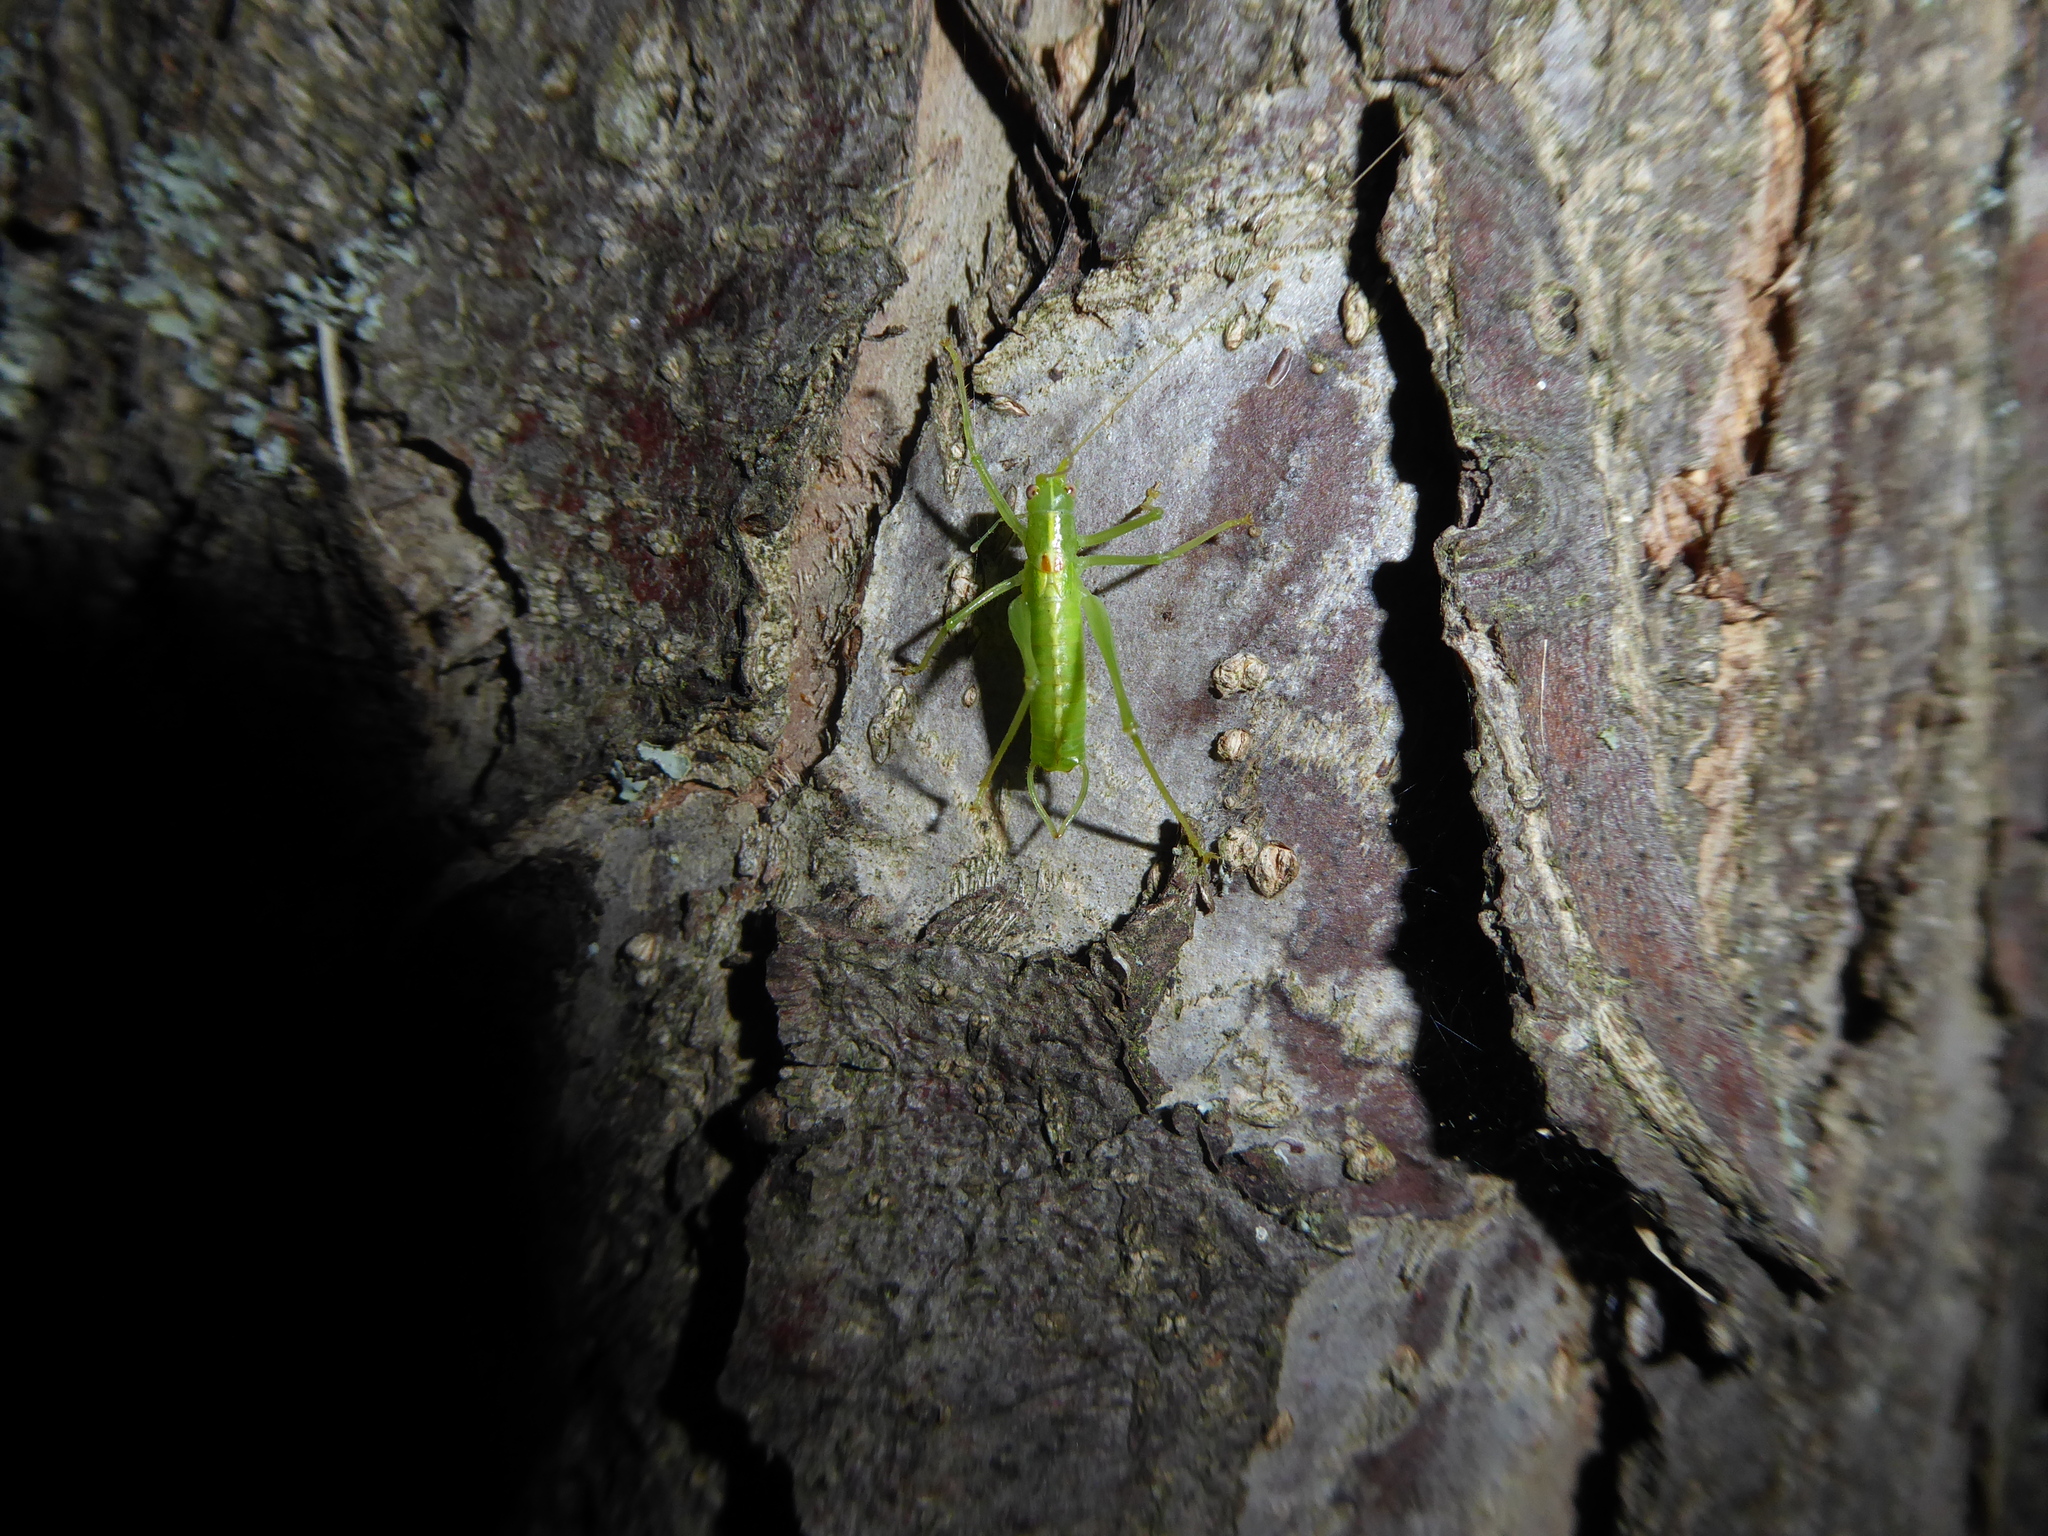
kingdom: Animalia
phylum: Arthropoda
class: Insecta
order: Orthoptera
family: Tettigoniidae
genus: Meconema
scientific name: Meconema meridionale
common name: Southern oak bush-cricket
